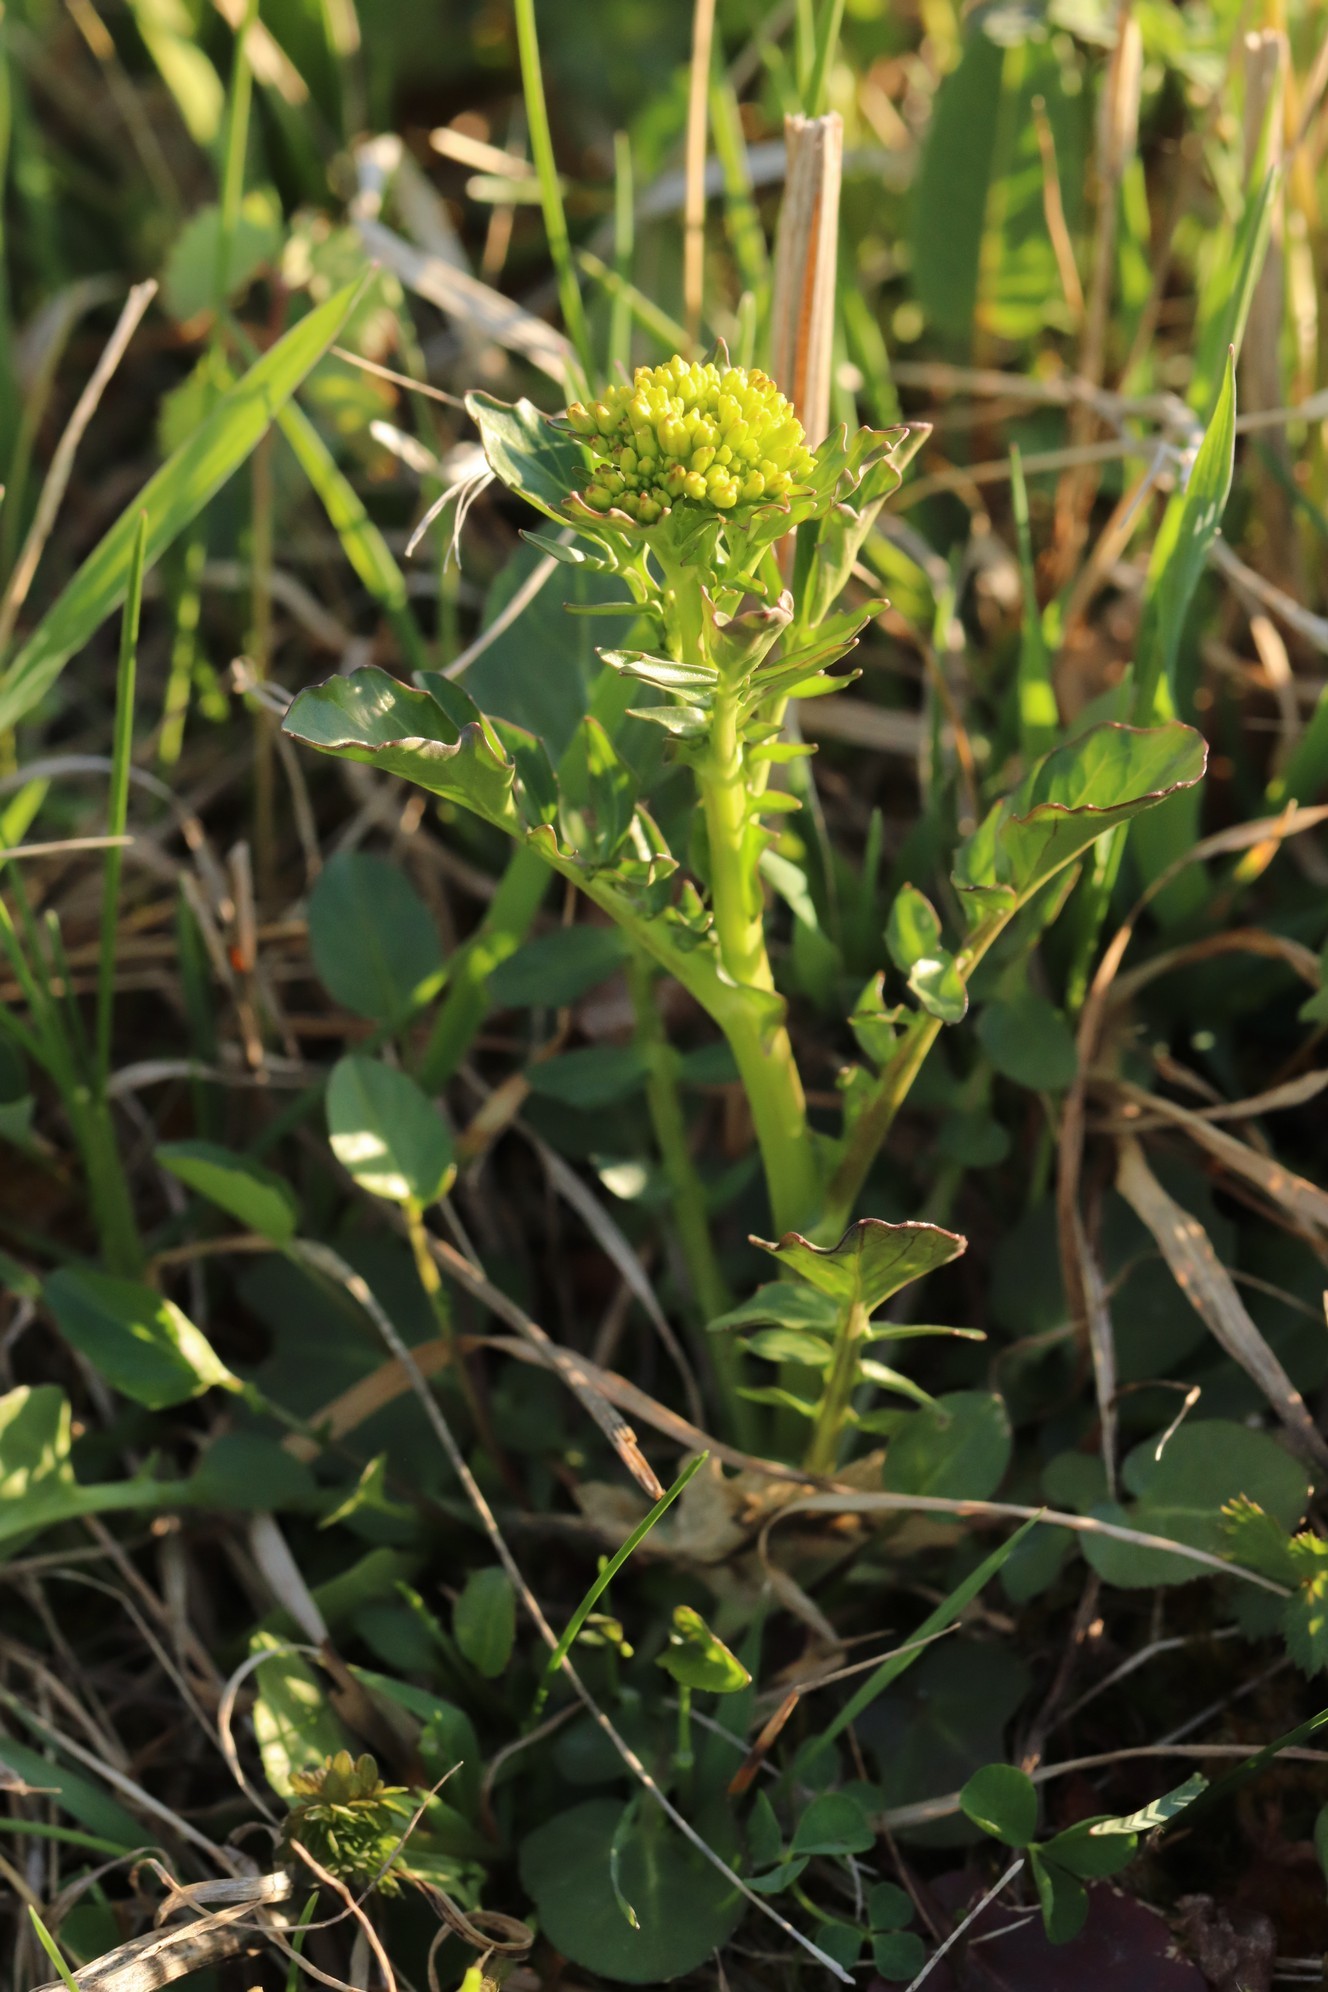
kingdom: Plantae
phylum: Tracheophyta
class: Magnoliopsida
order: Brassicales
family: Brassicaceae
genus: Barbarea
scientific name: Barbarea vulgaris
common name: Cressy-greens
